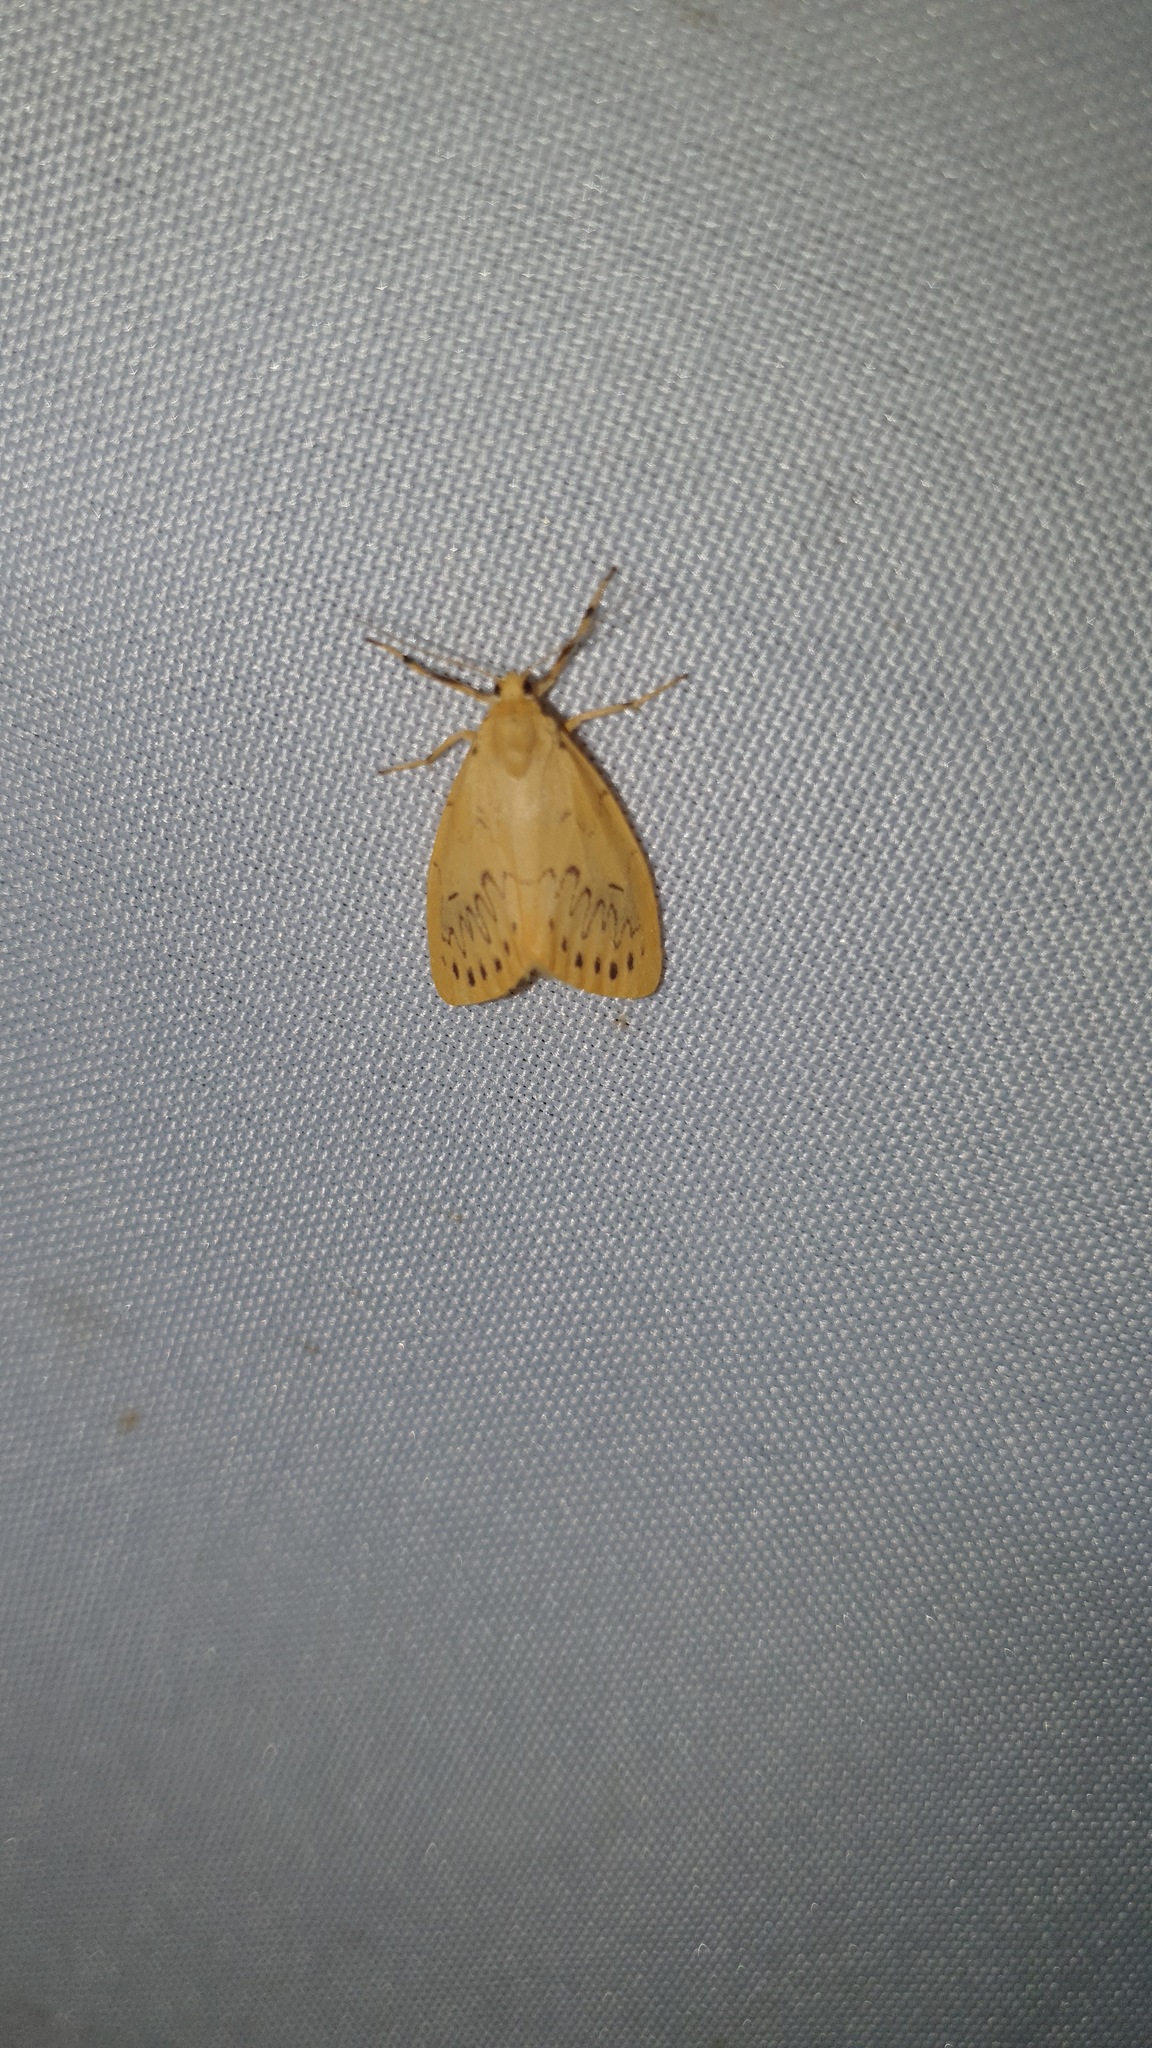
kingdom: Animalia
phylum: Arthropoda
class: Insecta
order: Lepidoptera
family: Erebidae
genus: Miltochrista
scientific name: Miltochrista miniata
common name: Rosy footman
